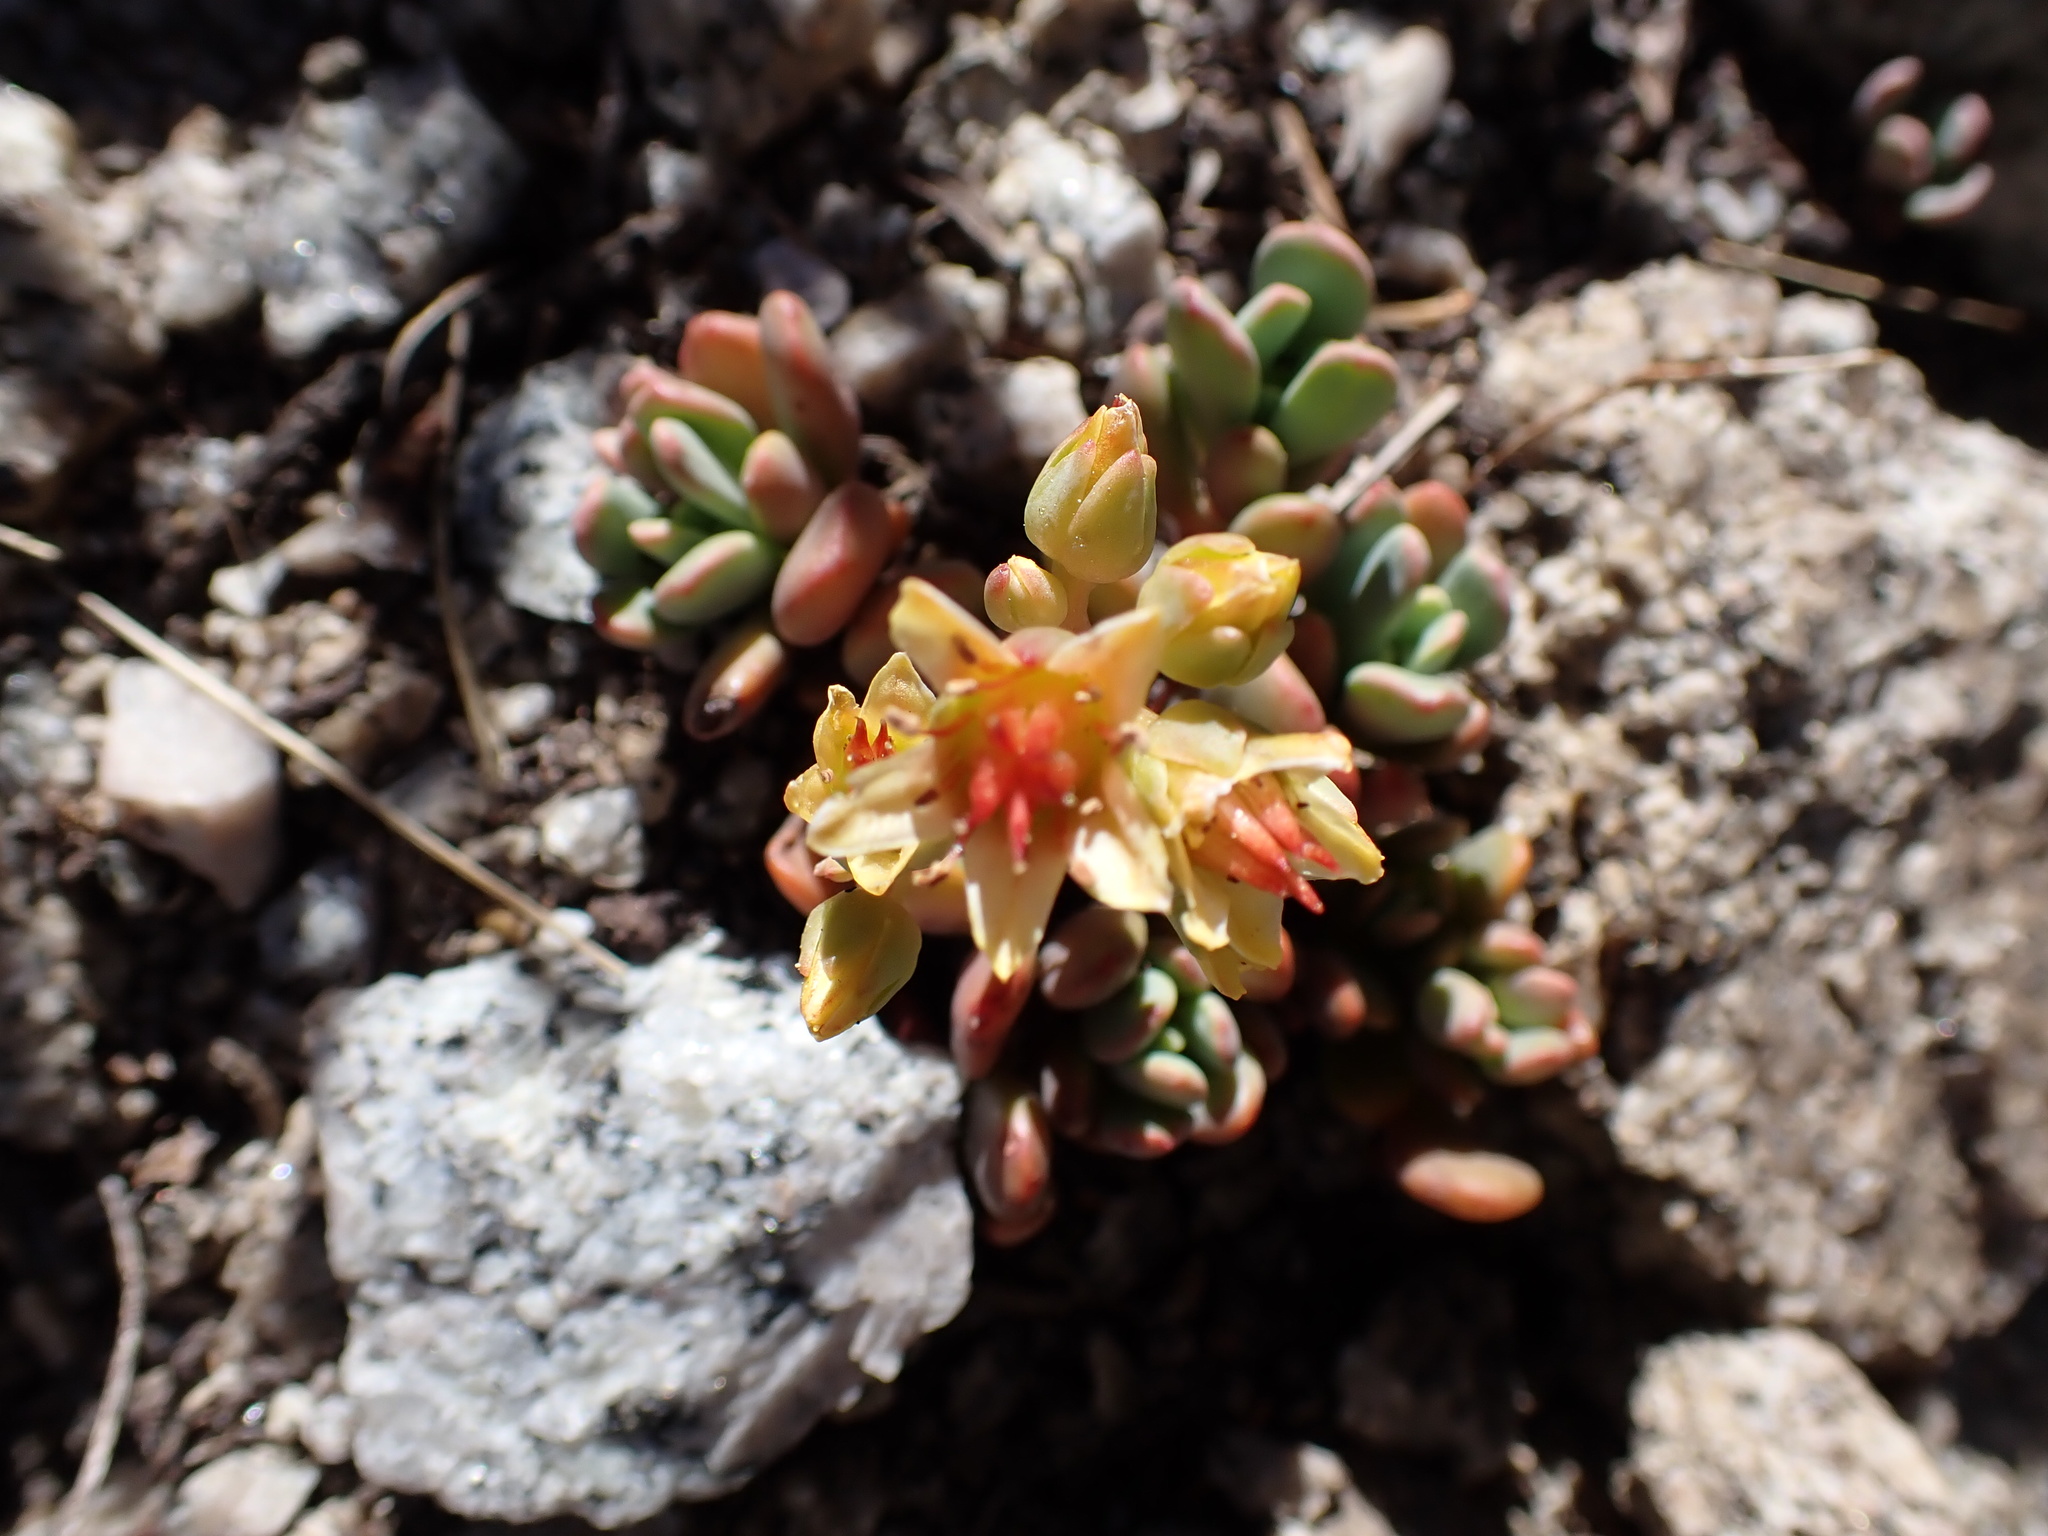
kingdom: Plantae
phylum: Tracheophyta
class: Magnoliopsida
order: Saxifragales
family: Crassulaceae
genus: Sedum
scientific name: Sedum obtusatum
